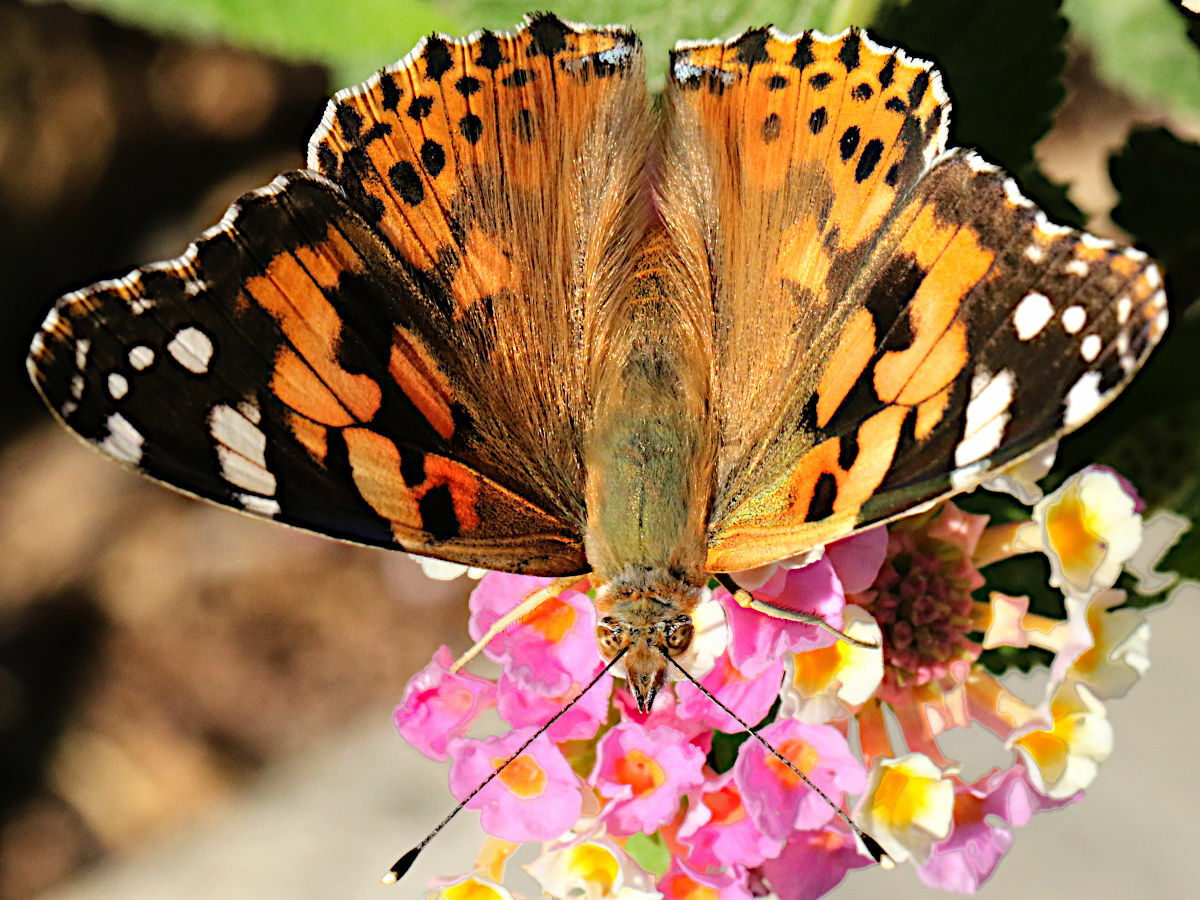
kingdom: Animalia
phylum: Arthropoda
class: Insecta
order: Lepidoptera
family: Nymphalidae
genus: Vanessa
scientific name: Vanessa cardui
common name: Painted lady
